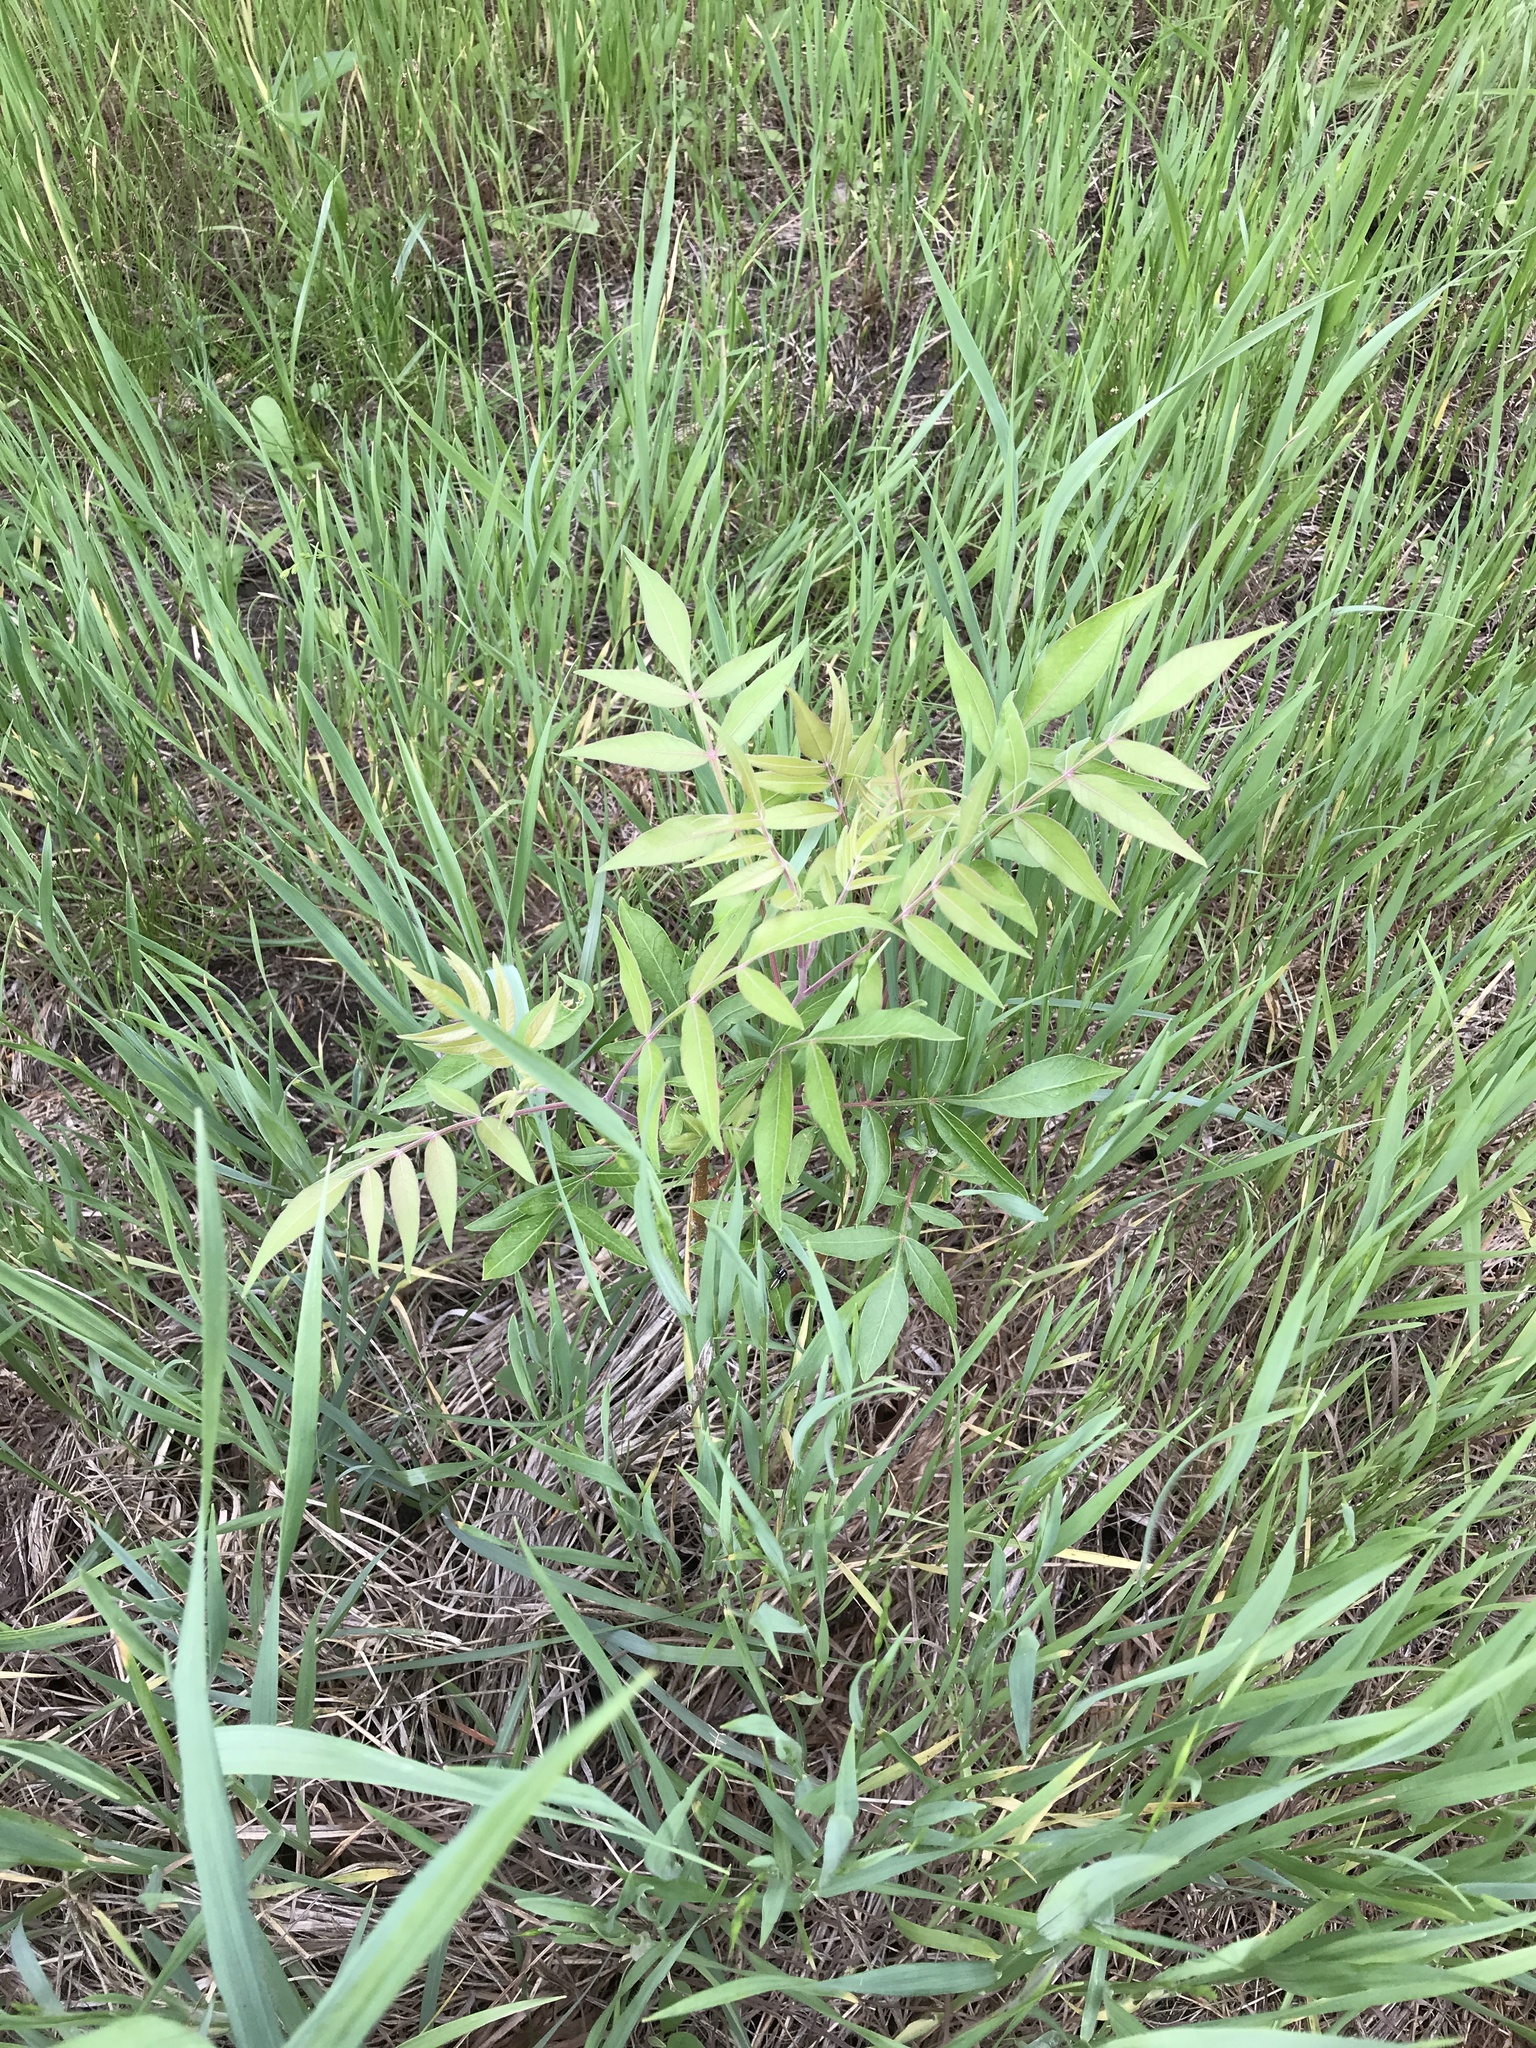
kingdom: Plantae
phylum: Tracheophyta
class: Magnoliopsida
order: Sapindales
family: Anacardiaceae
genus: Rhus
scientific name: Rhus lanceolata
